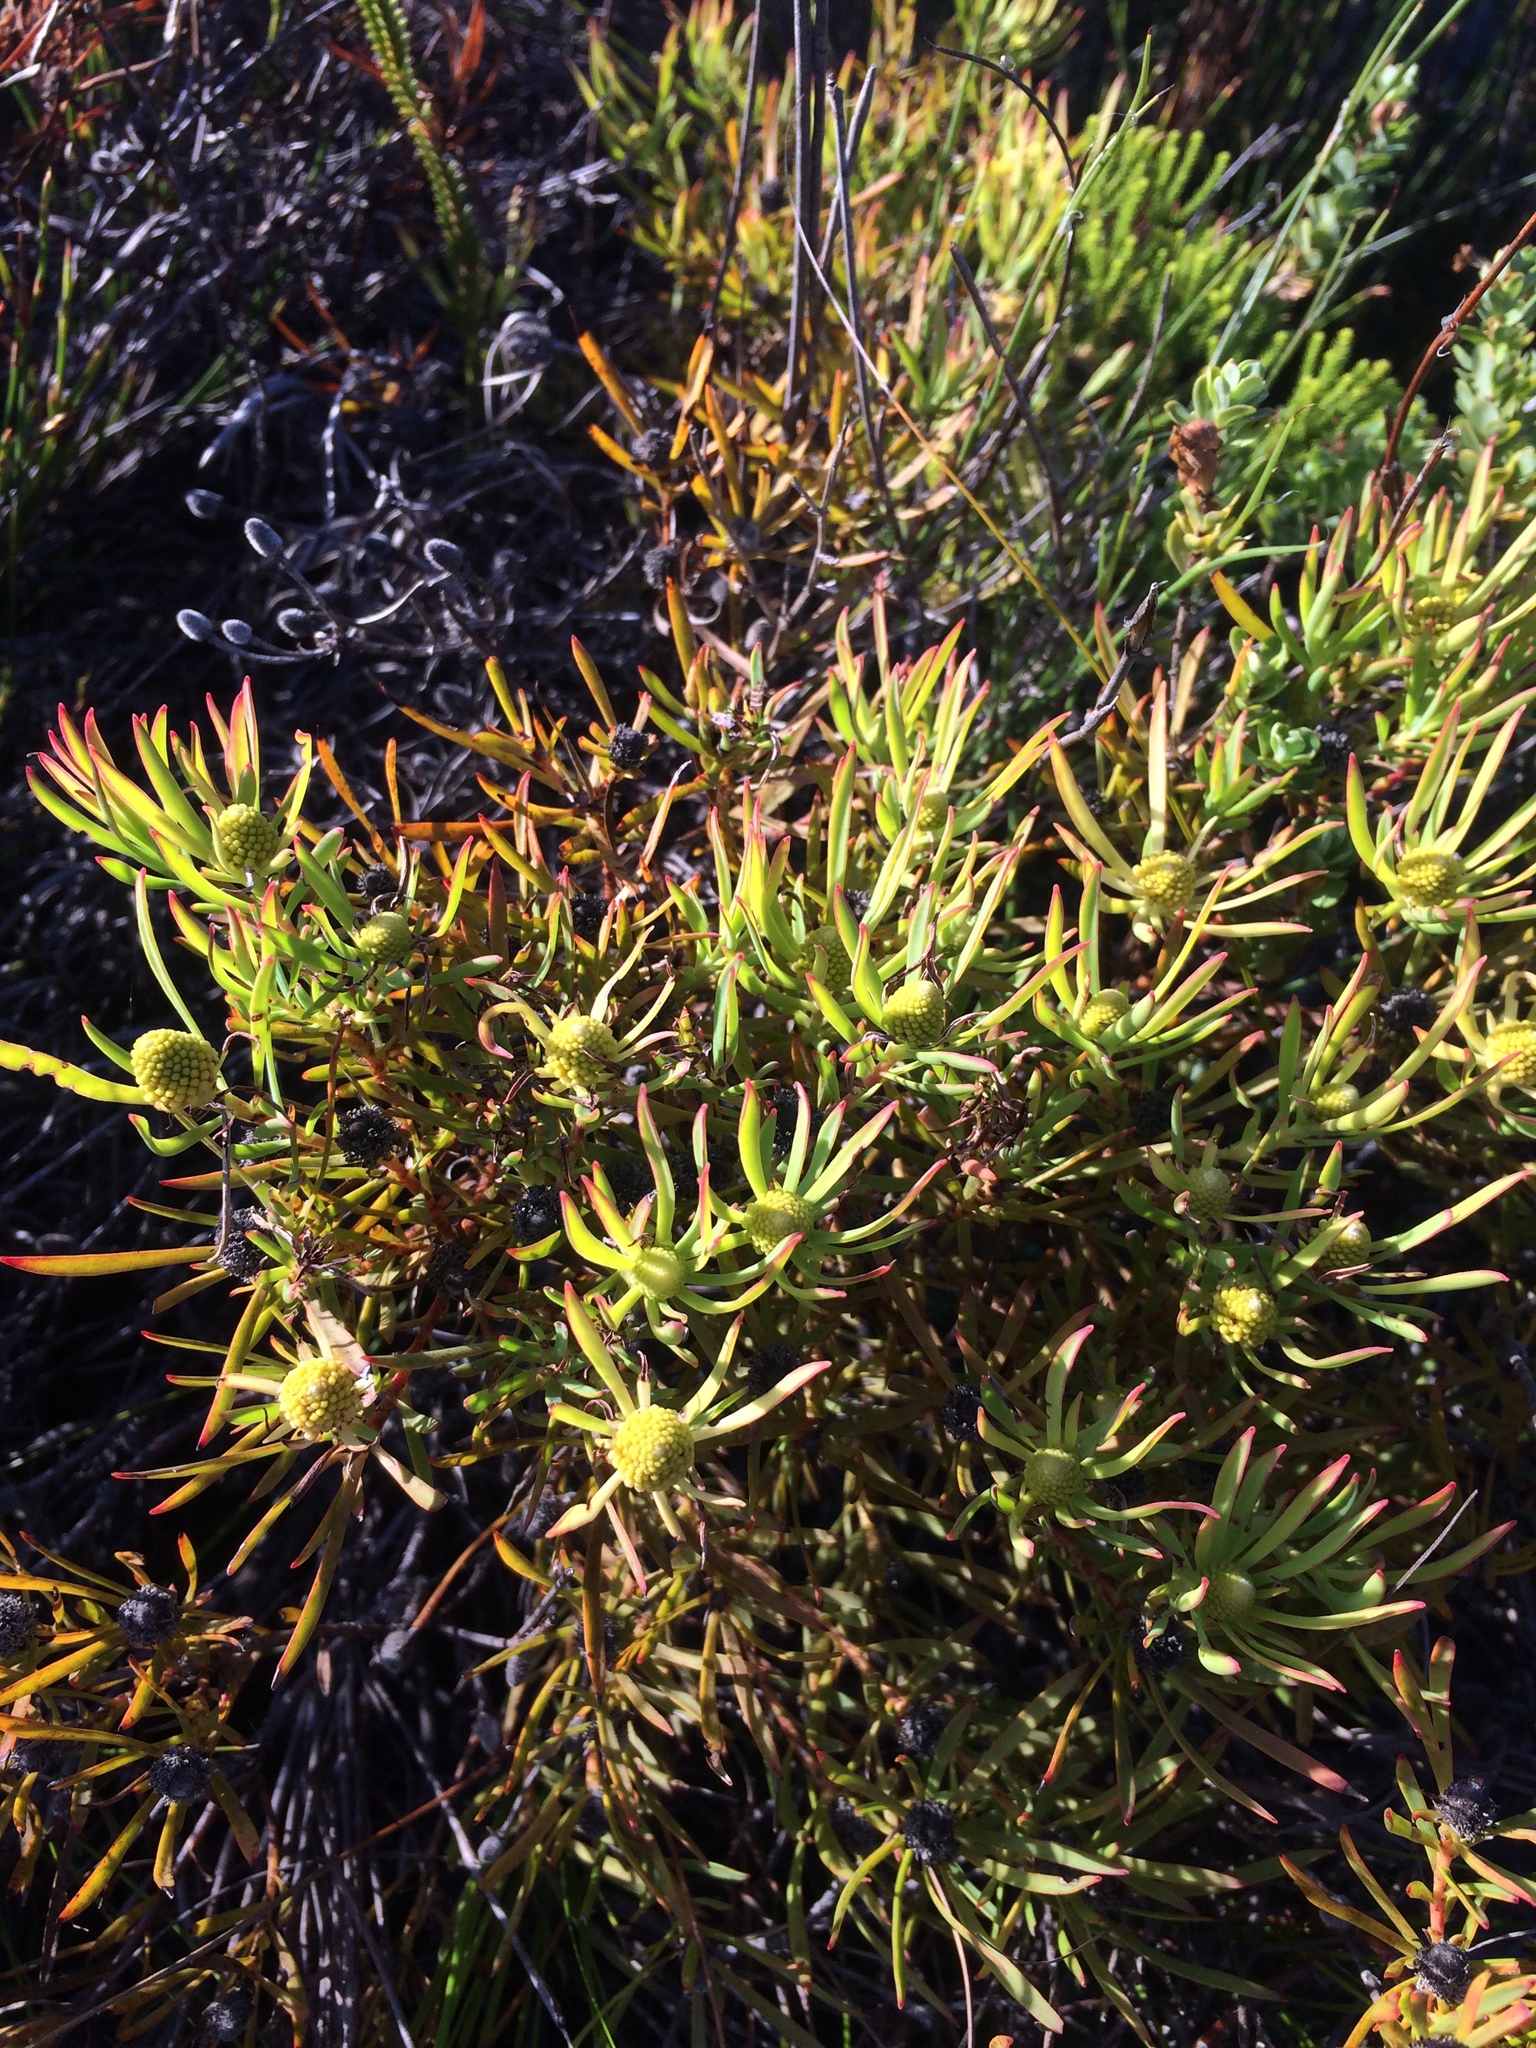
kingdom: Plantae
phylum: Tracheophyta
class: Magnoliopsida
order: Proteales
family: Proteaceae
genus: Leucadendron
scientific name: Leucadendron salignum
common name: Common sunshine conebush
